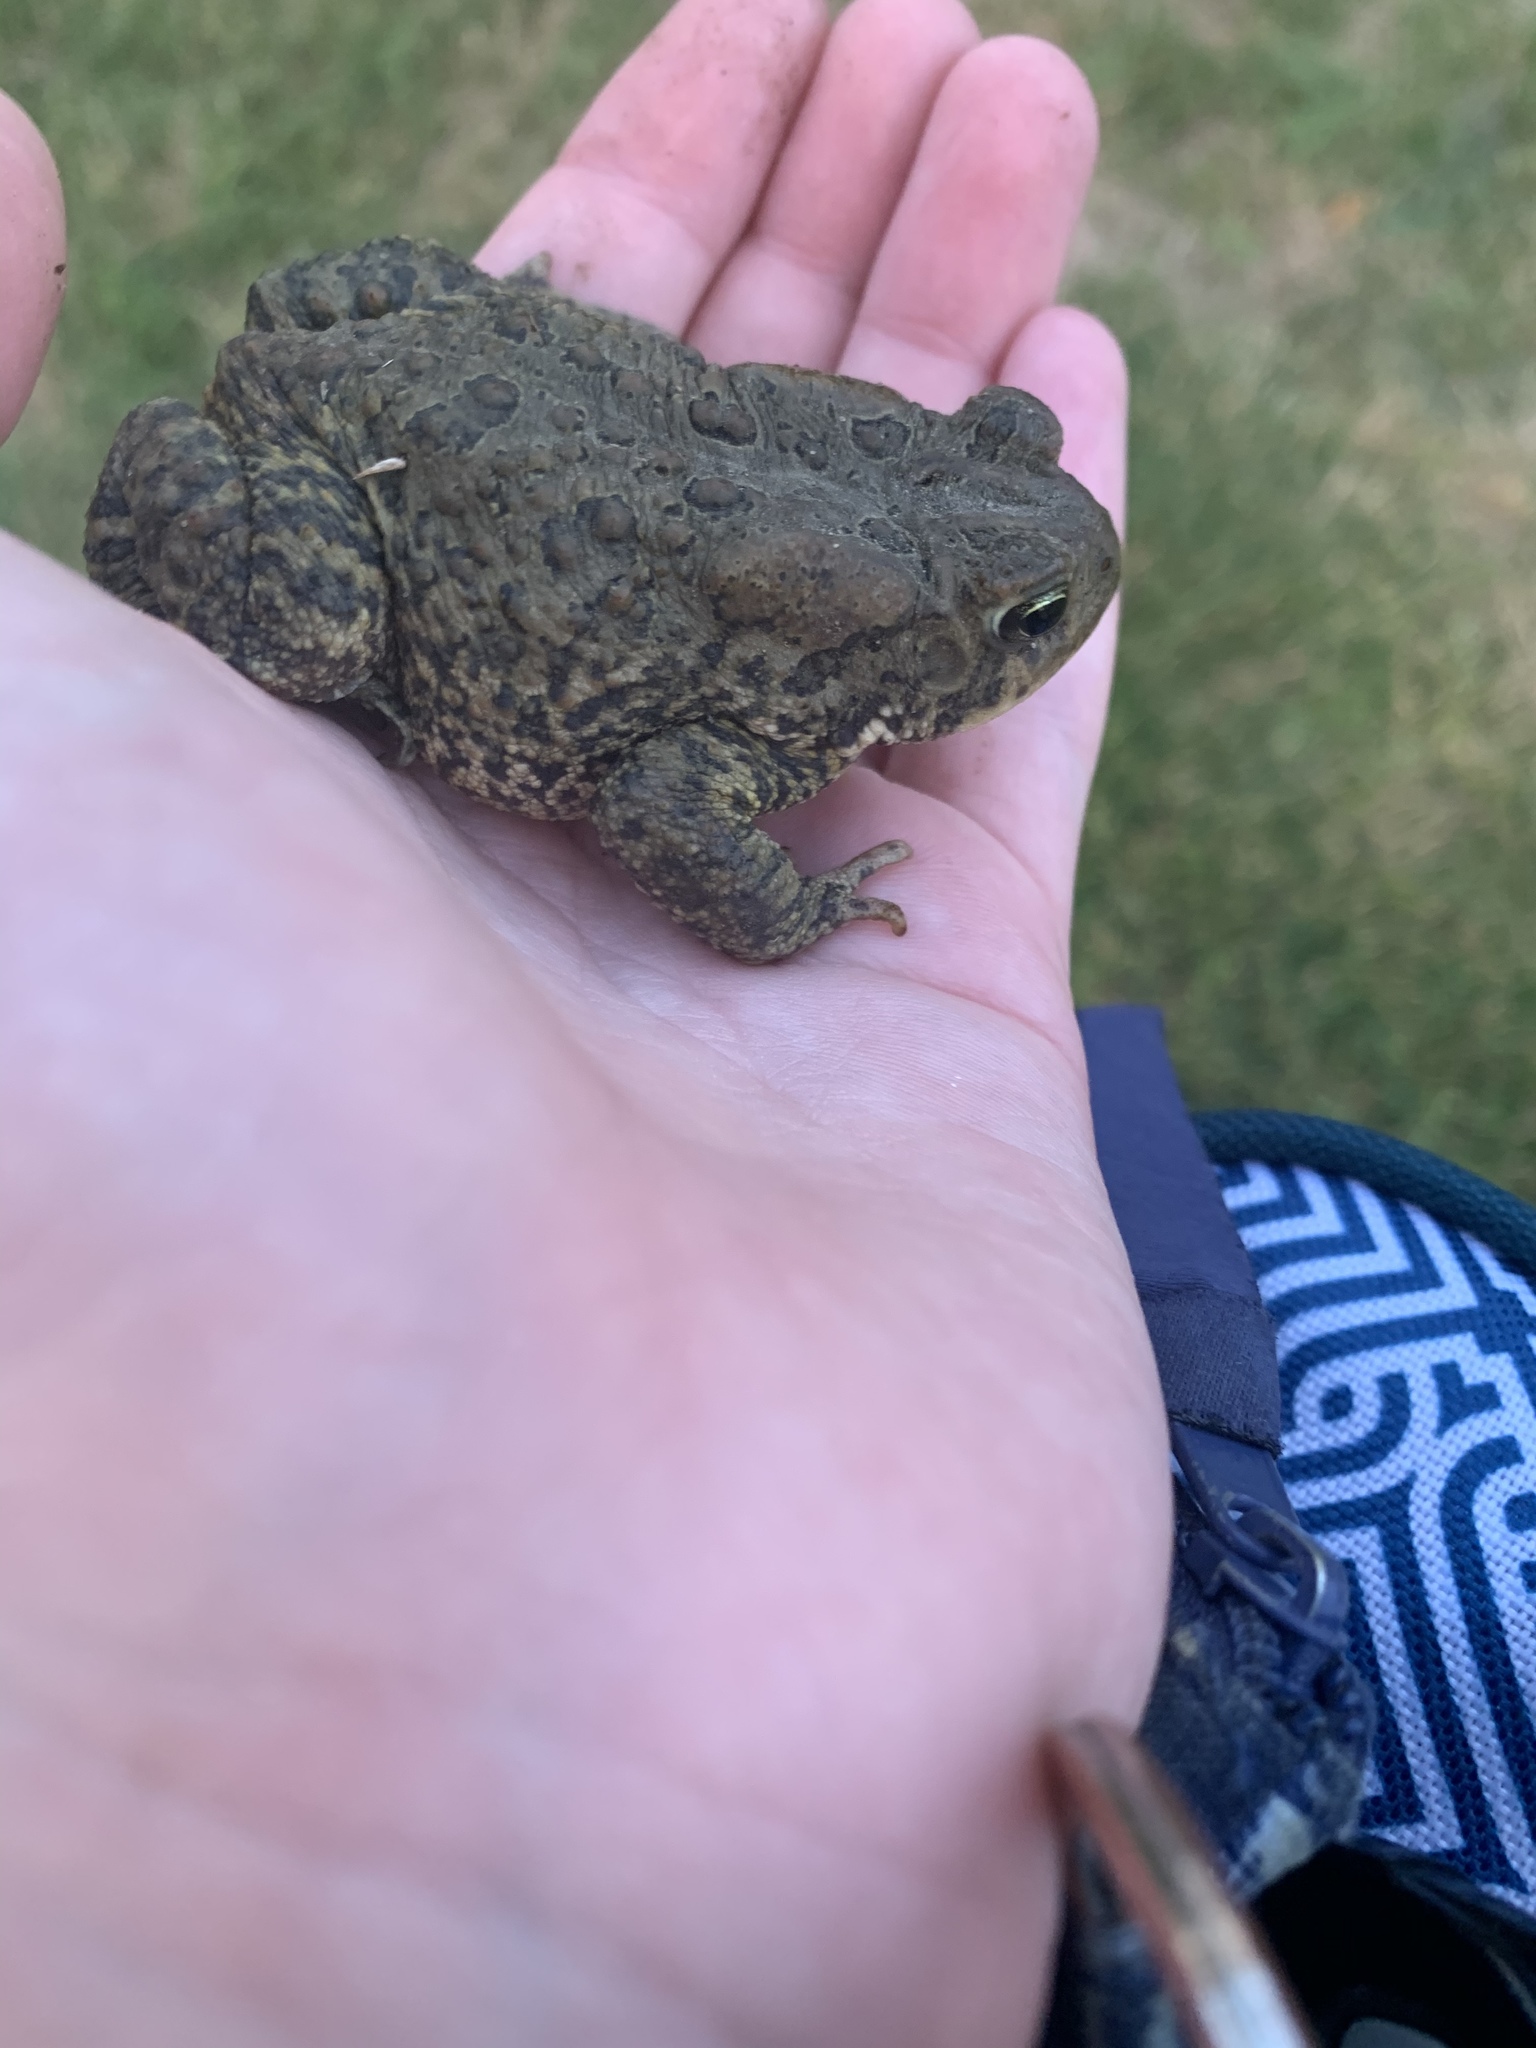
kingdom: Animalia
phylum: Chordata
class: Amphibia
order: Anura
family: Bufonidae
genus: Anaxyrus
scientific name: Anaxyrus americanus
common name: American toad
